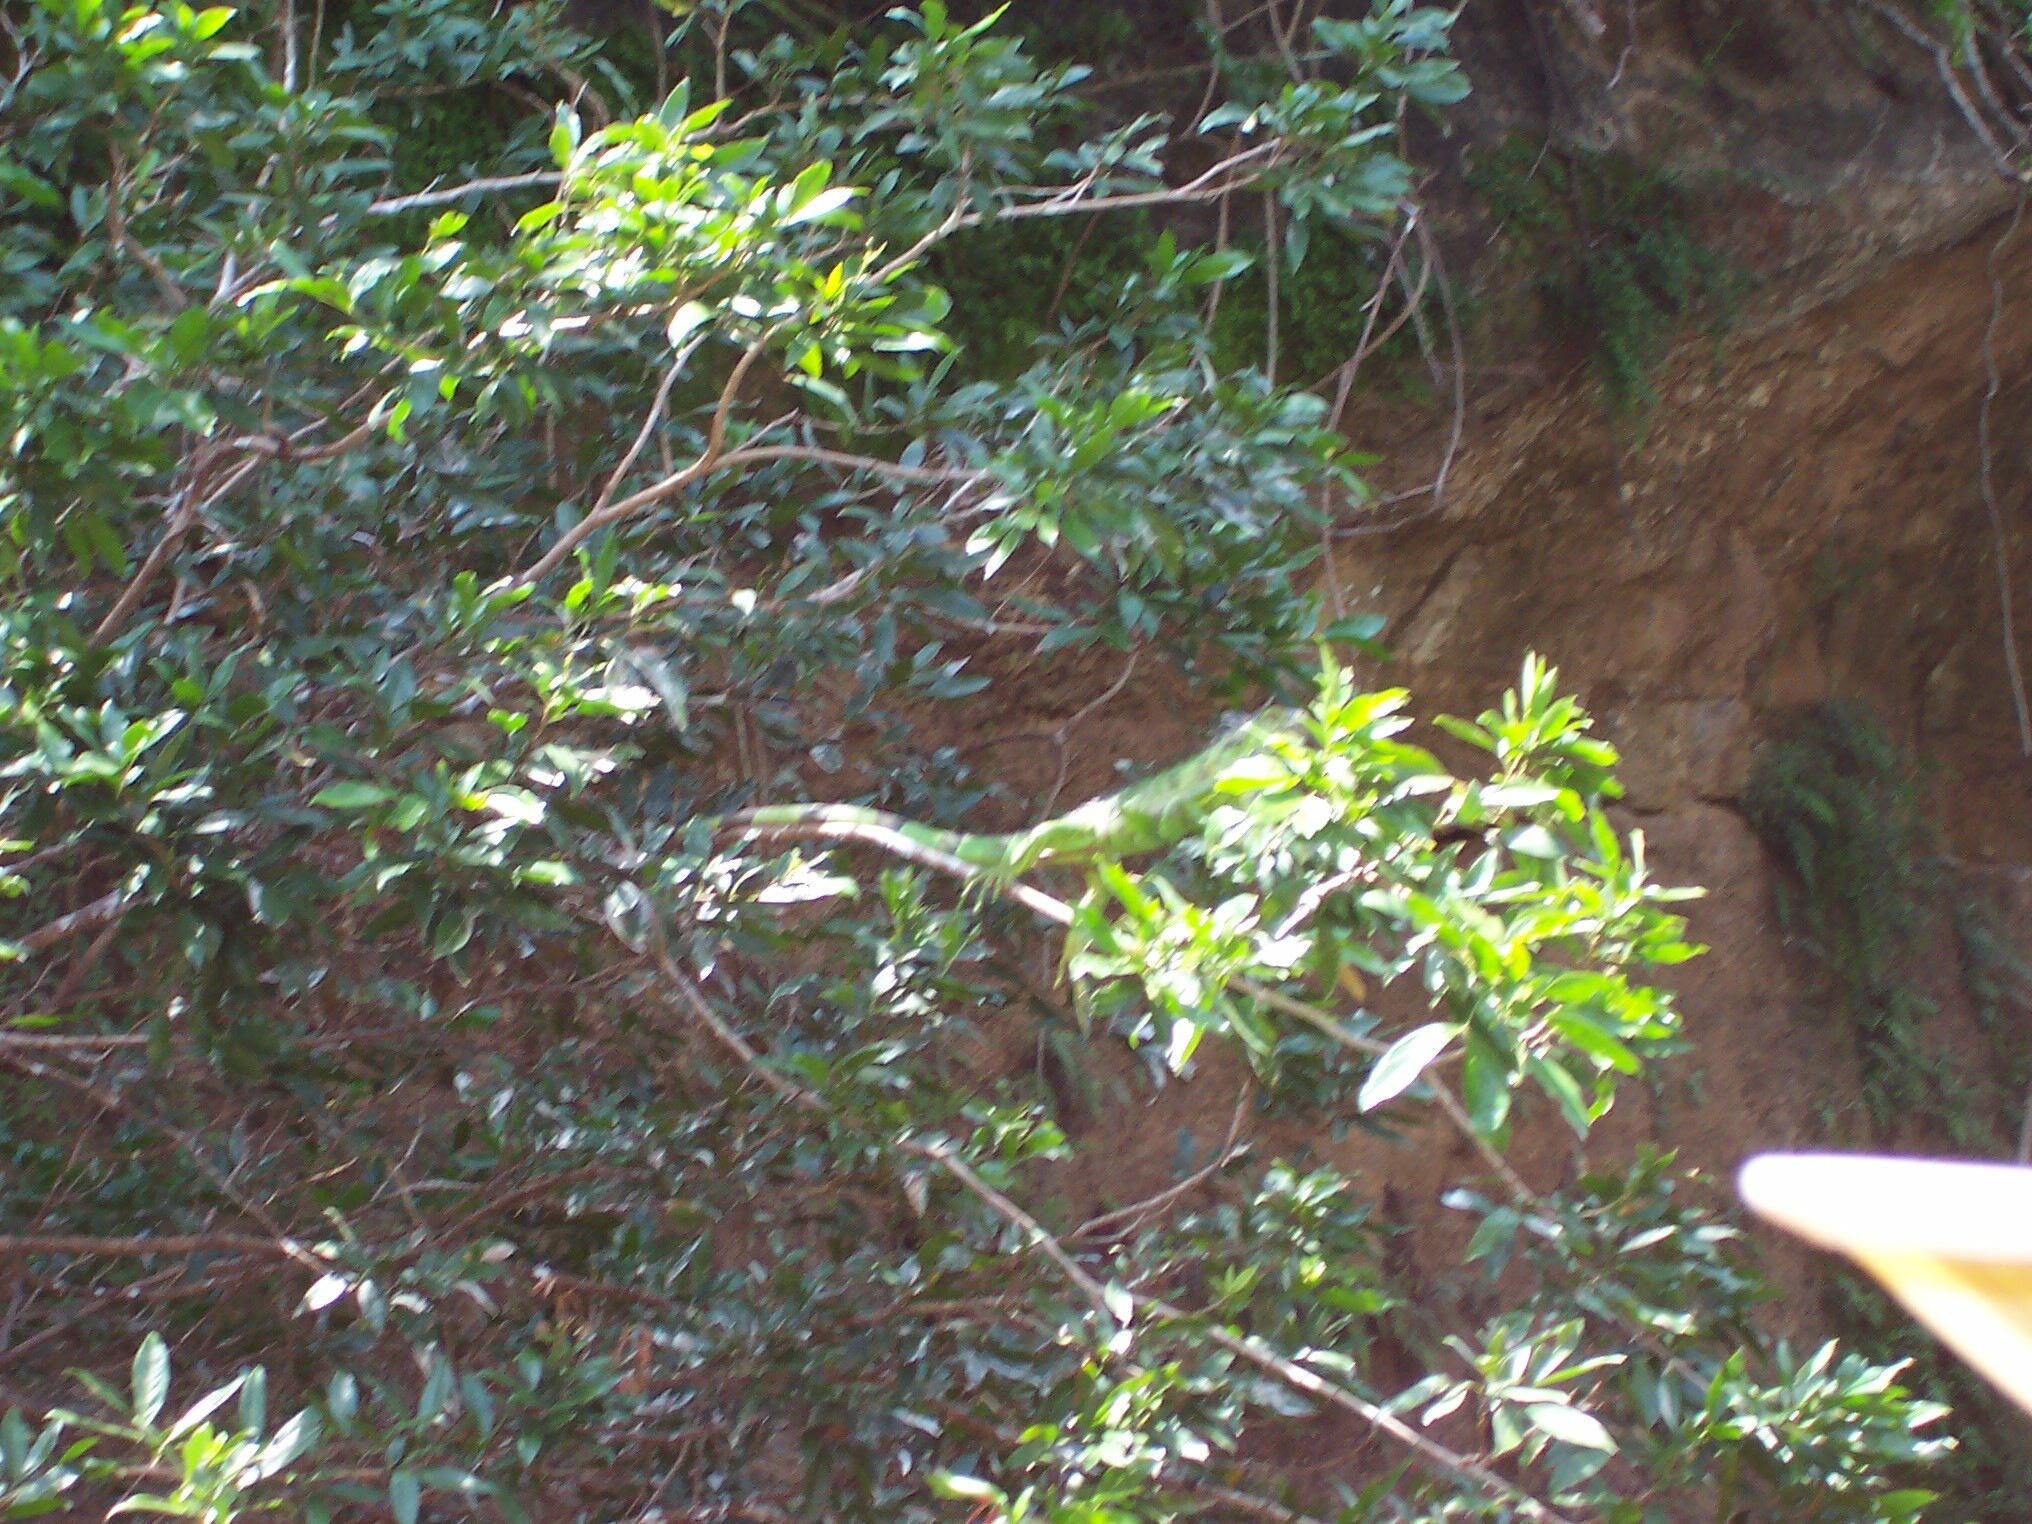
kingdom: Animalia
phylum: Chordata
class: Squamata
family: Iguanidae
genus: Iguana
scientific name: Iguana iguana
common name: Green iguana
